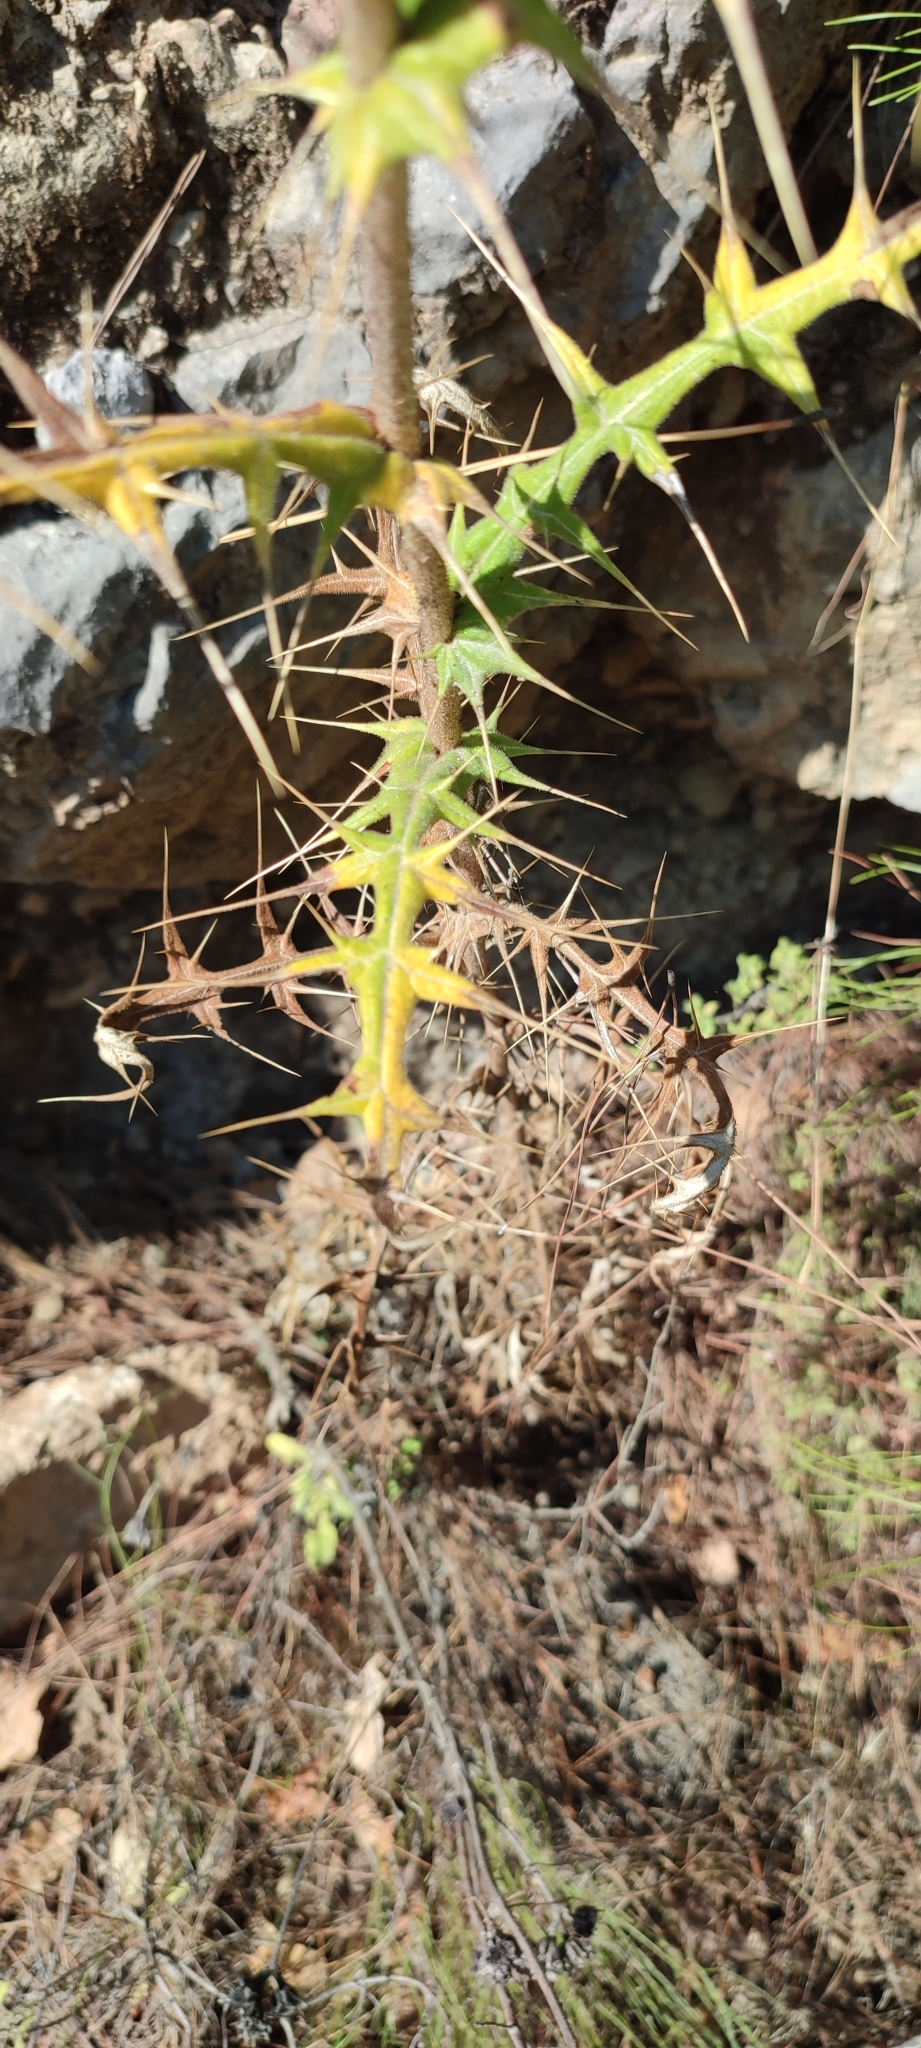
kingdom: Plantae
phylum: Tracheophyta
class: Magnoliopsida
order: Asterales
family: Asteraceae
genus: Echinops
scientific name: Echinops spinosissimus
